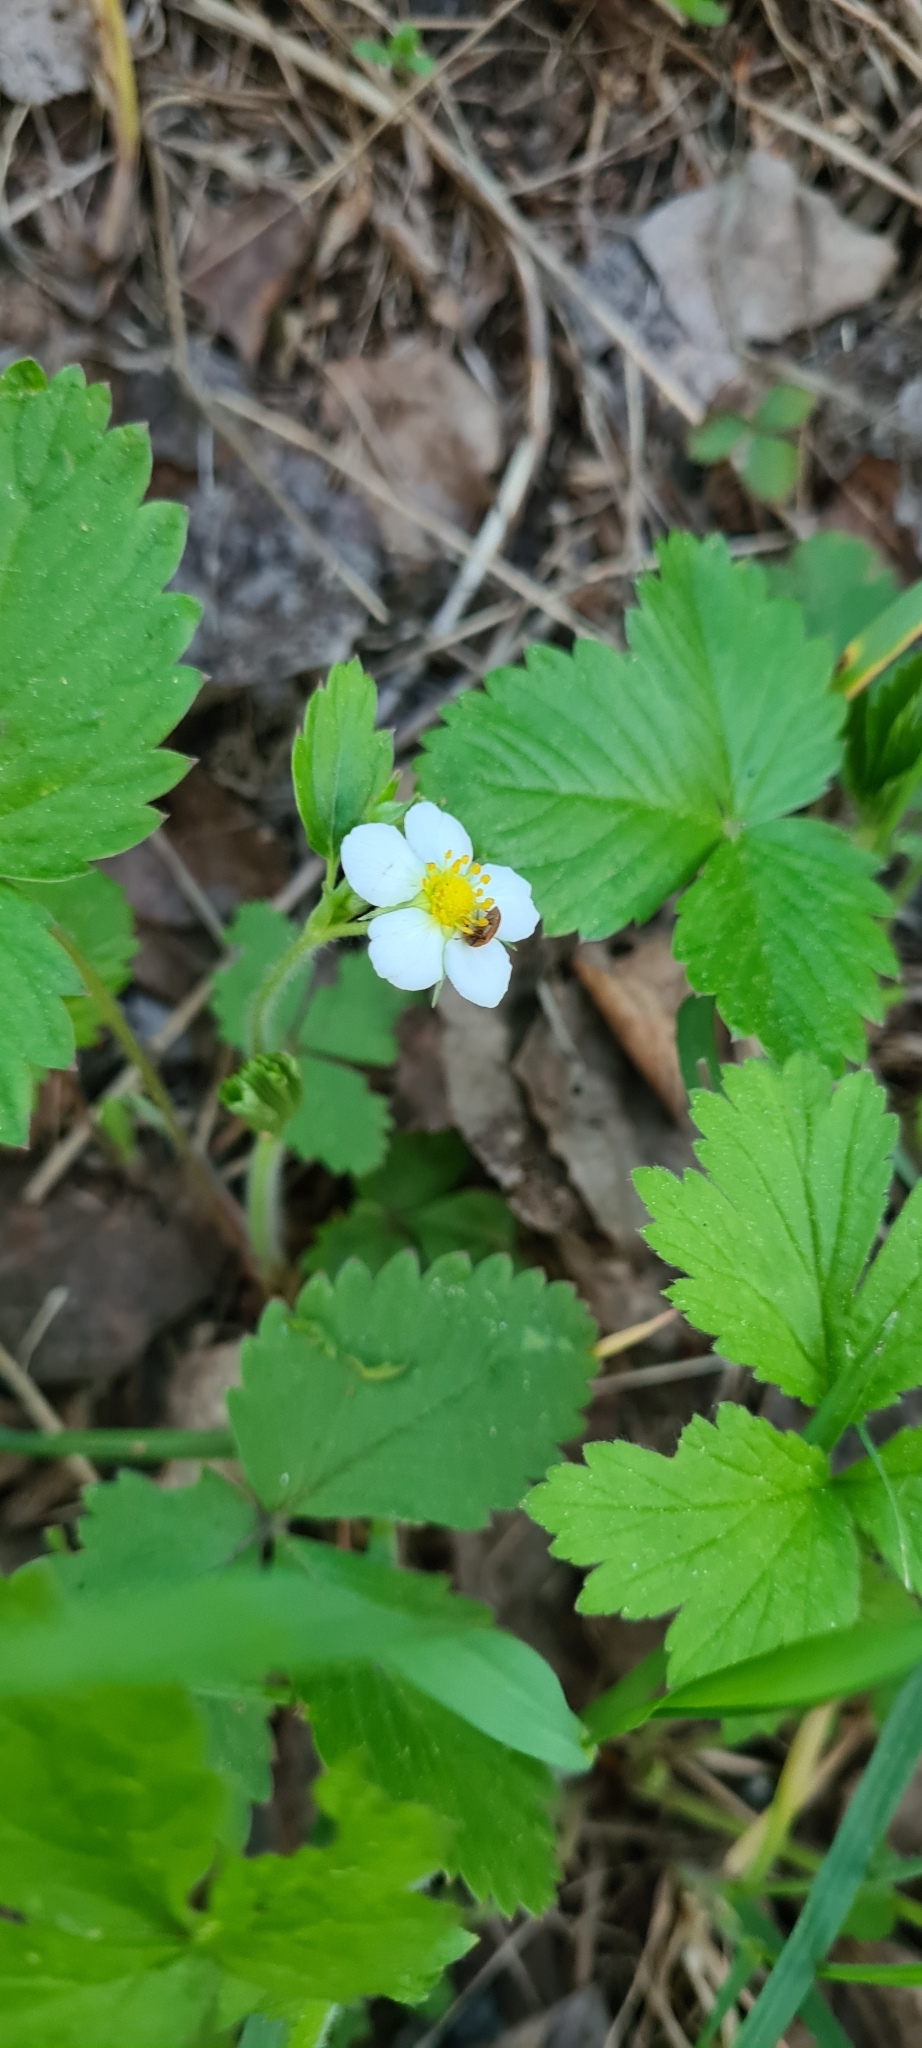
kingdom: Plantae
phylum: Tracheophyta
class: Magnoliopsida
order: Rosales
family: Rosaceae
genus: Fragaria
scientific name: Fragaria vesca
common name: Wild strawberry
